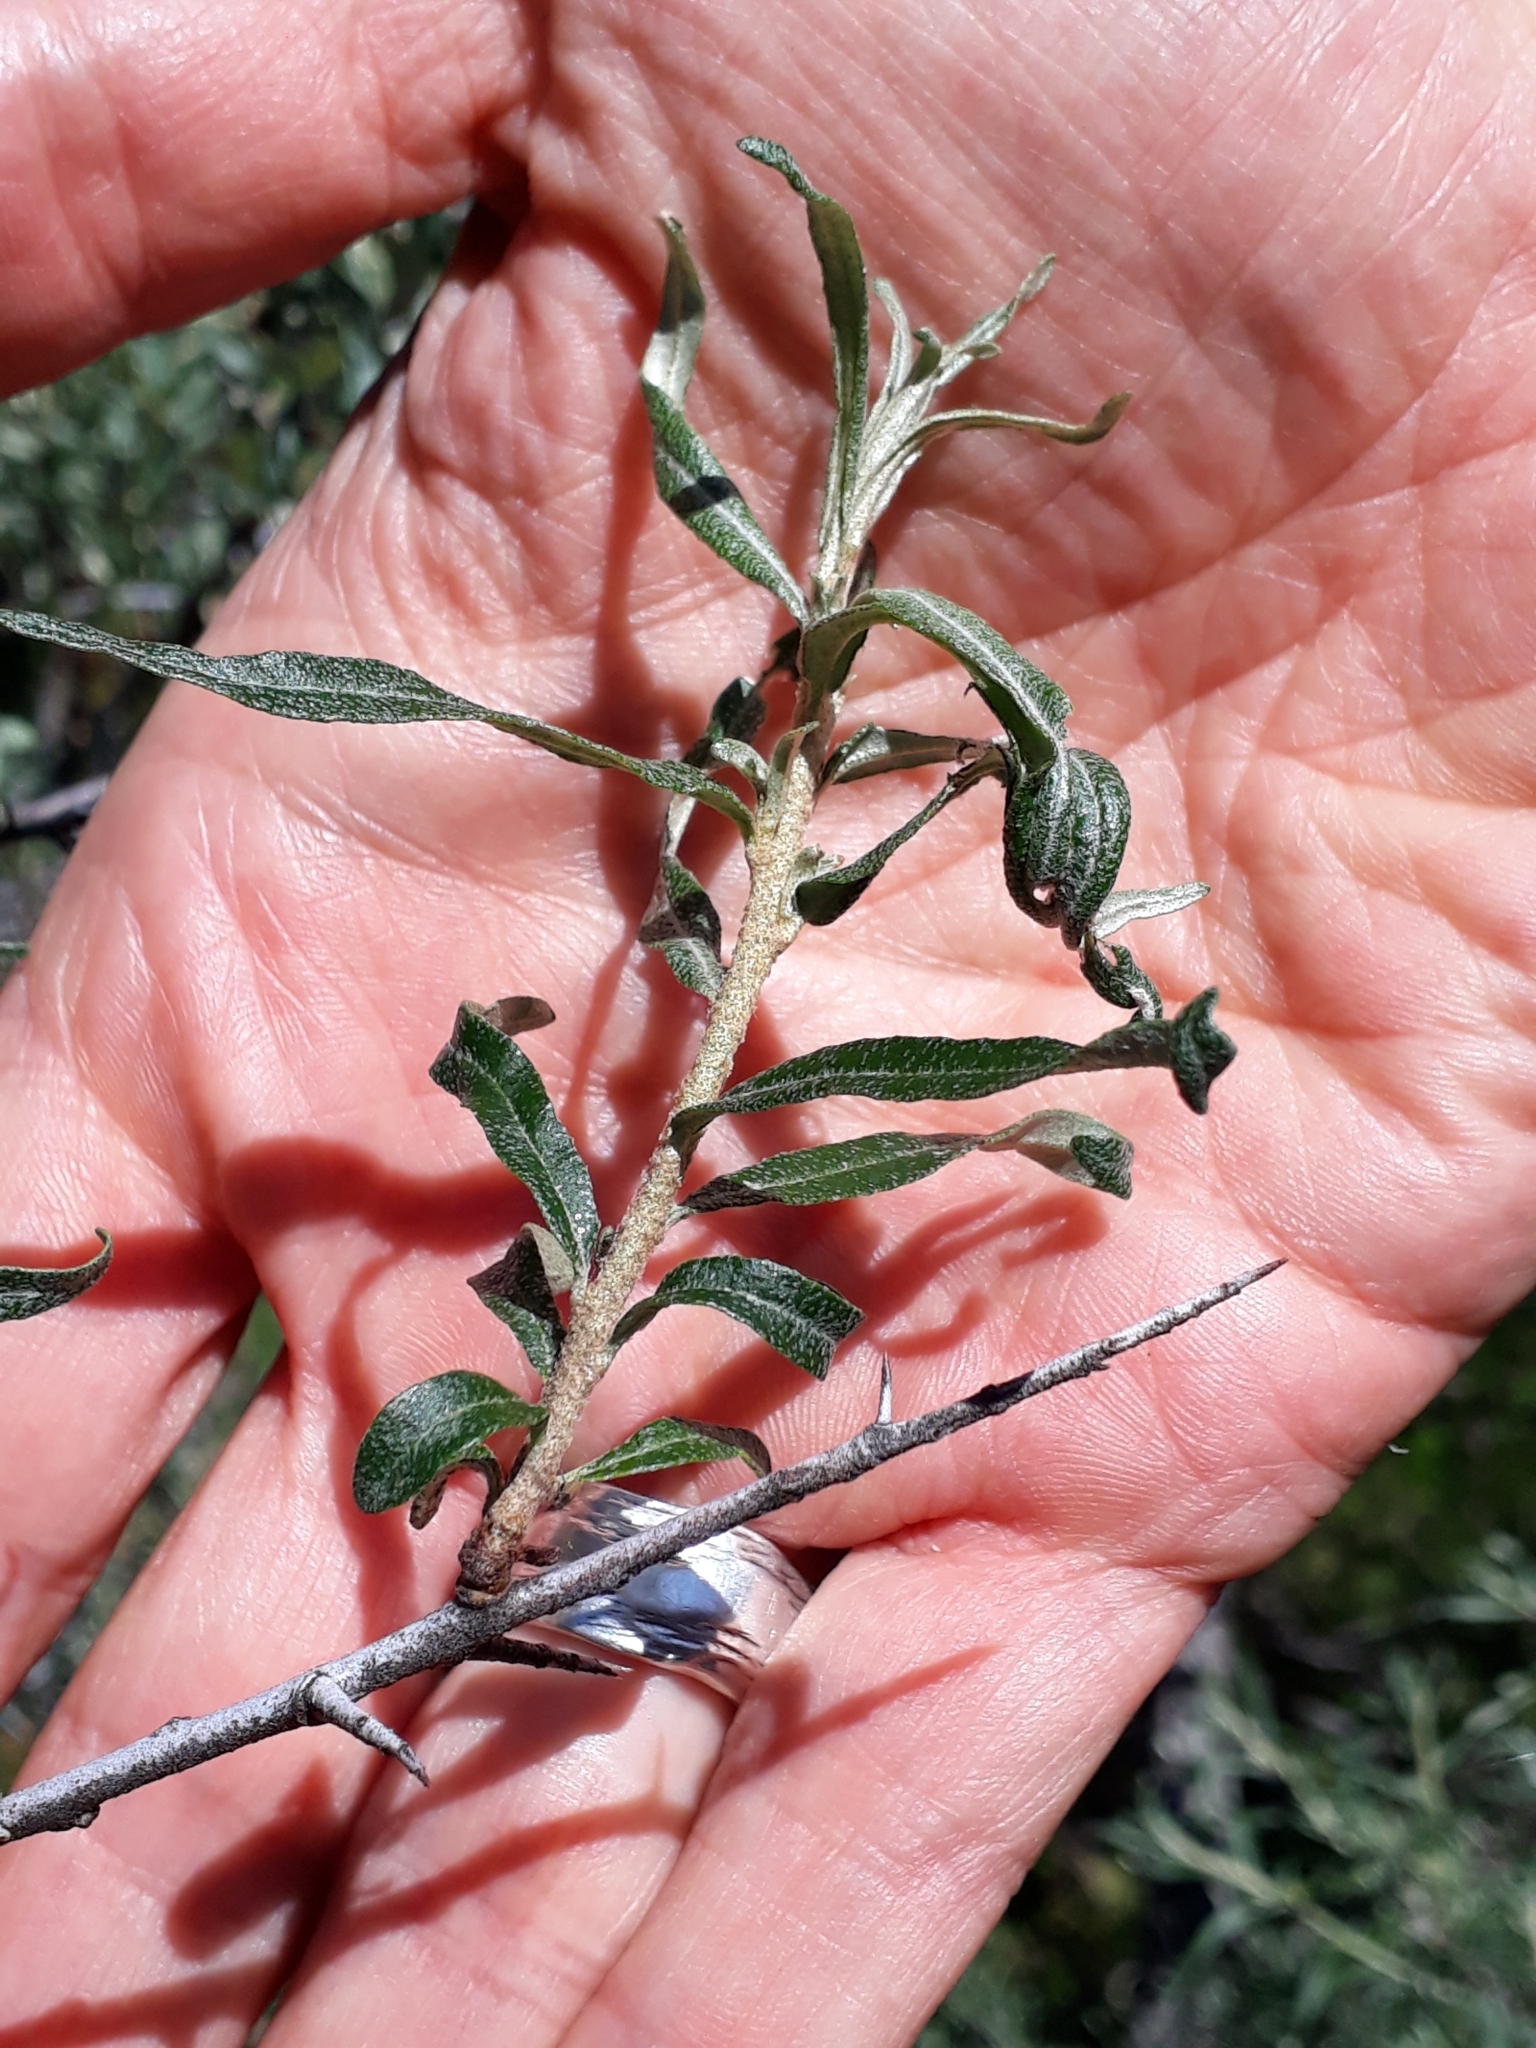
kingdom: Plantae
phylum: Tracheophyta
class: Magnoliopsida
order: Rosales
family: Elaeagnaceae
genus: Hippophae
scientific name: Hippophae rhamnoides
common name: Sea-buckthorn
